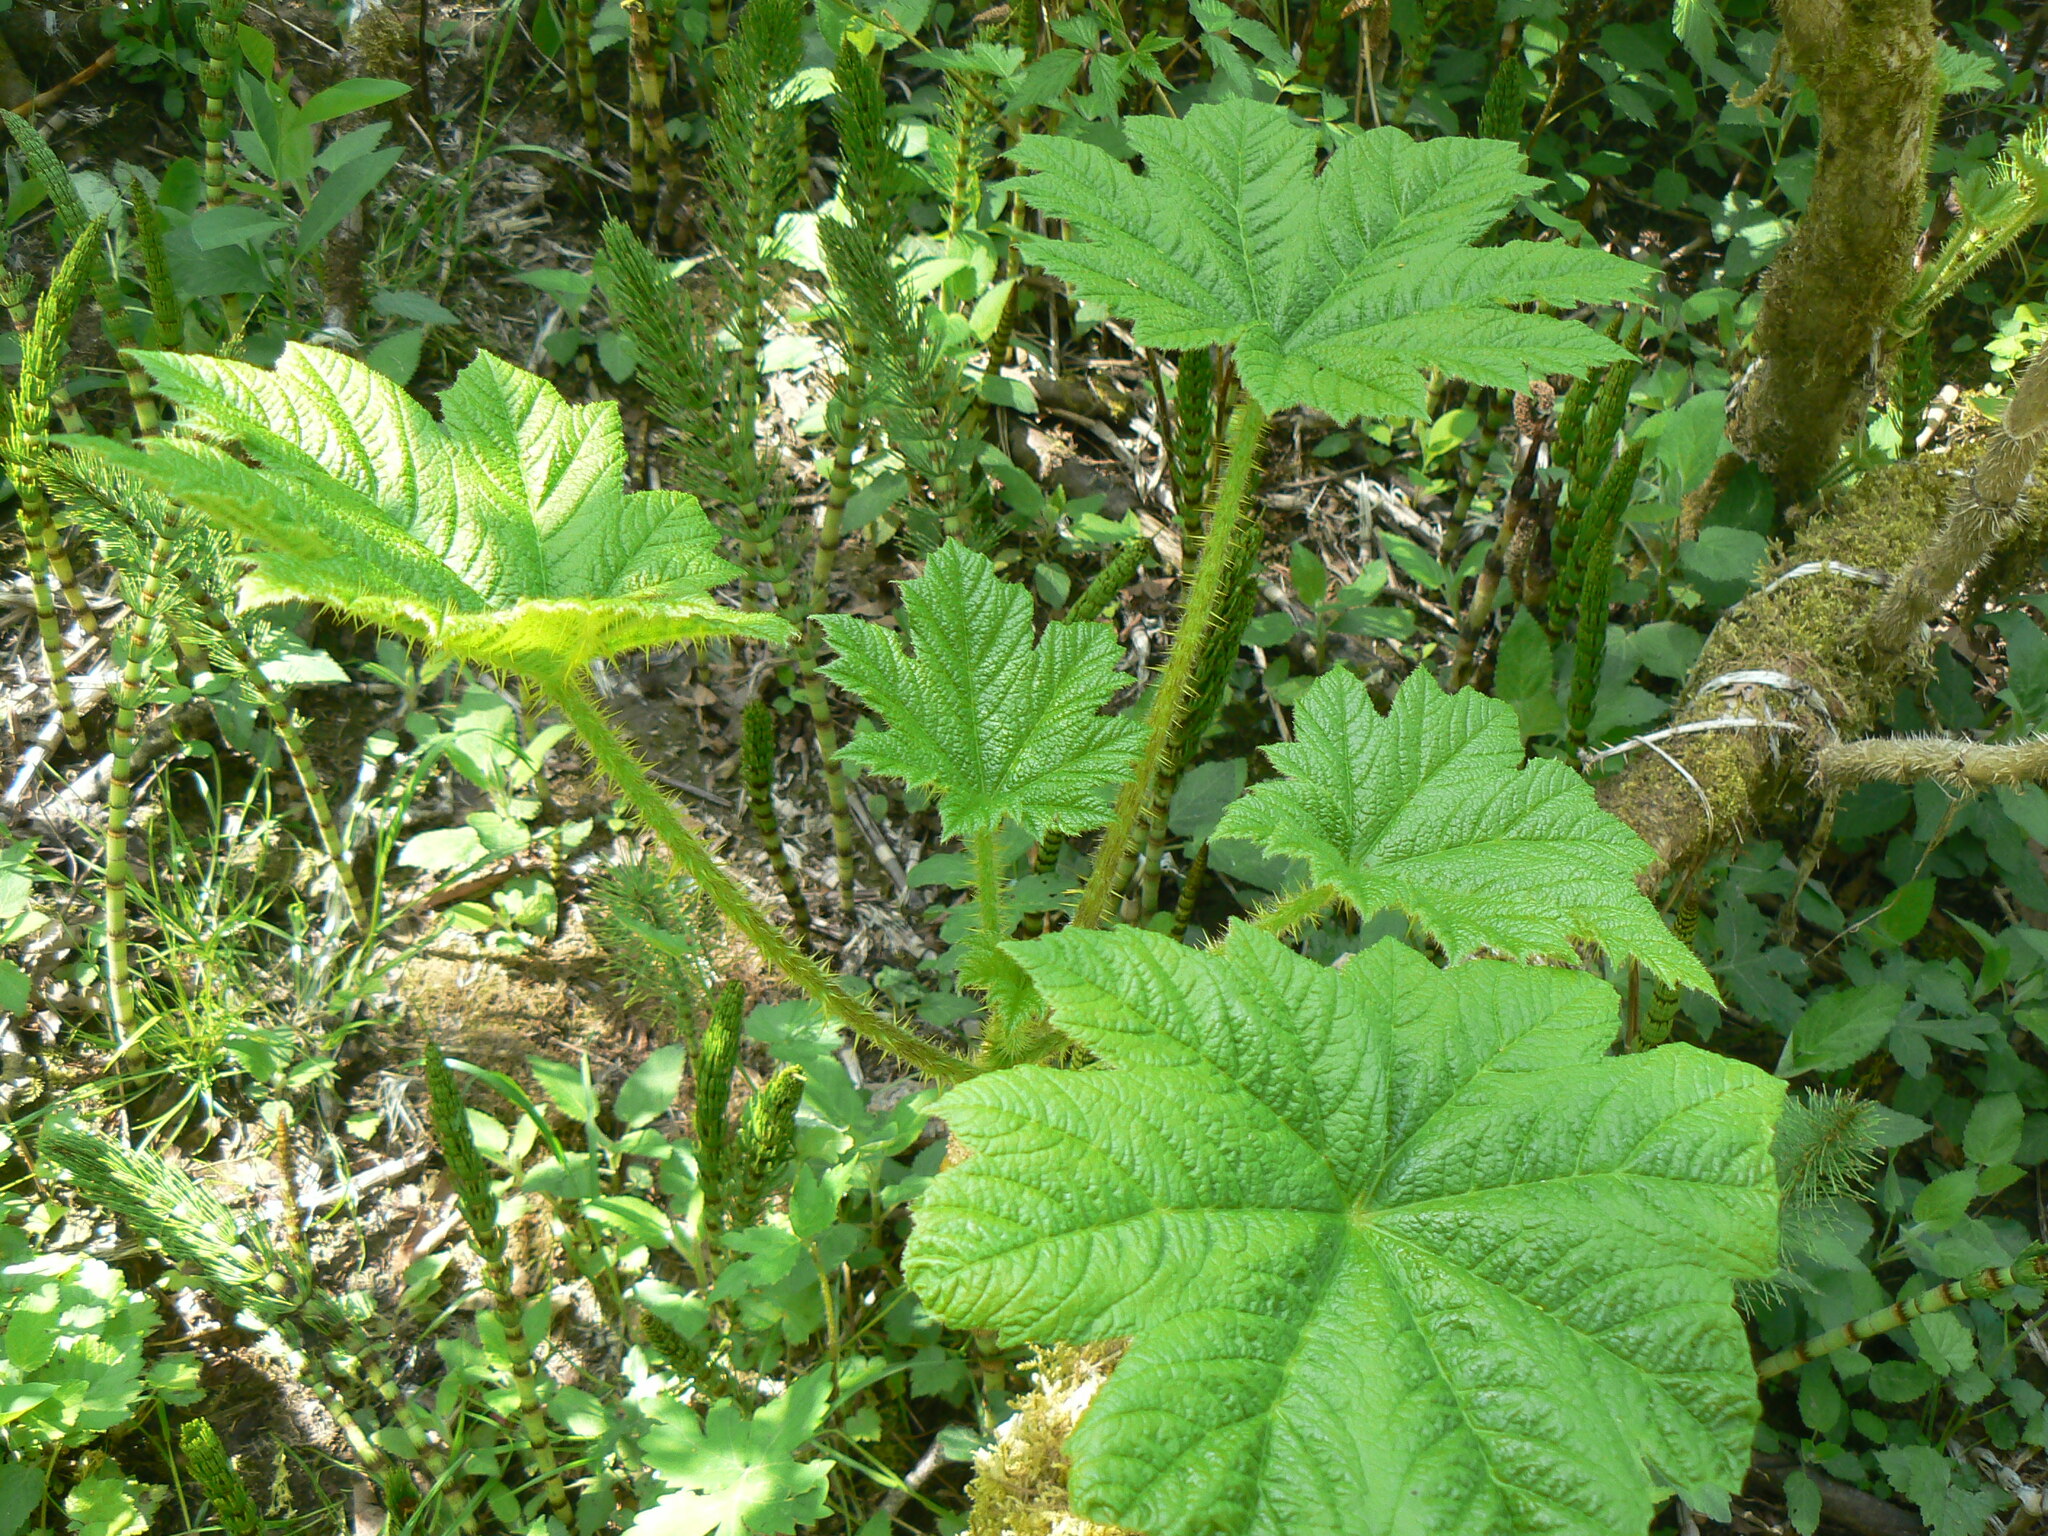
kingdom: Plantae
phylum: Tracheophyta
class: Magnoliopsida
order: Apiales
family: Araliaceae
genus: Oplopanax
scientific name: Oplopanax horridus
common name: Devil's walking-stick
